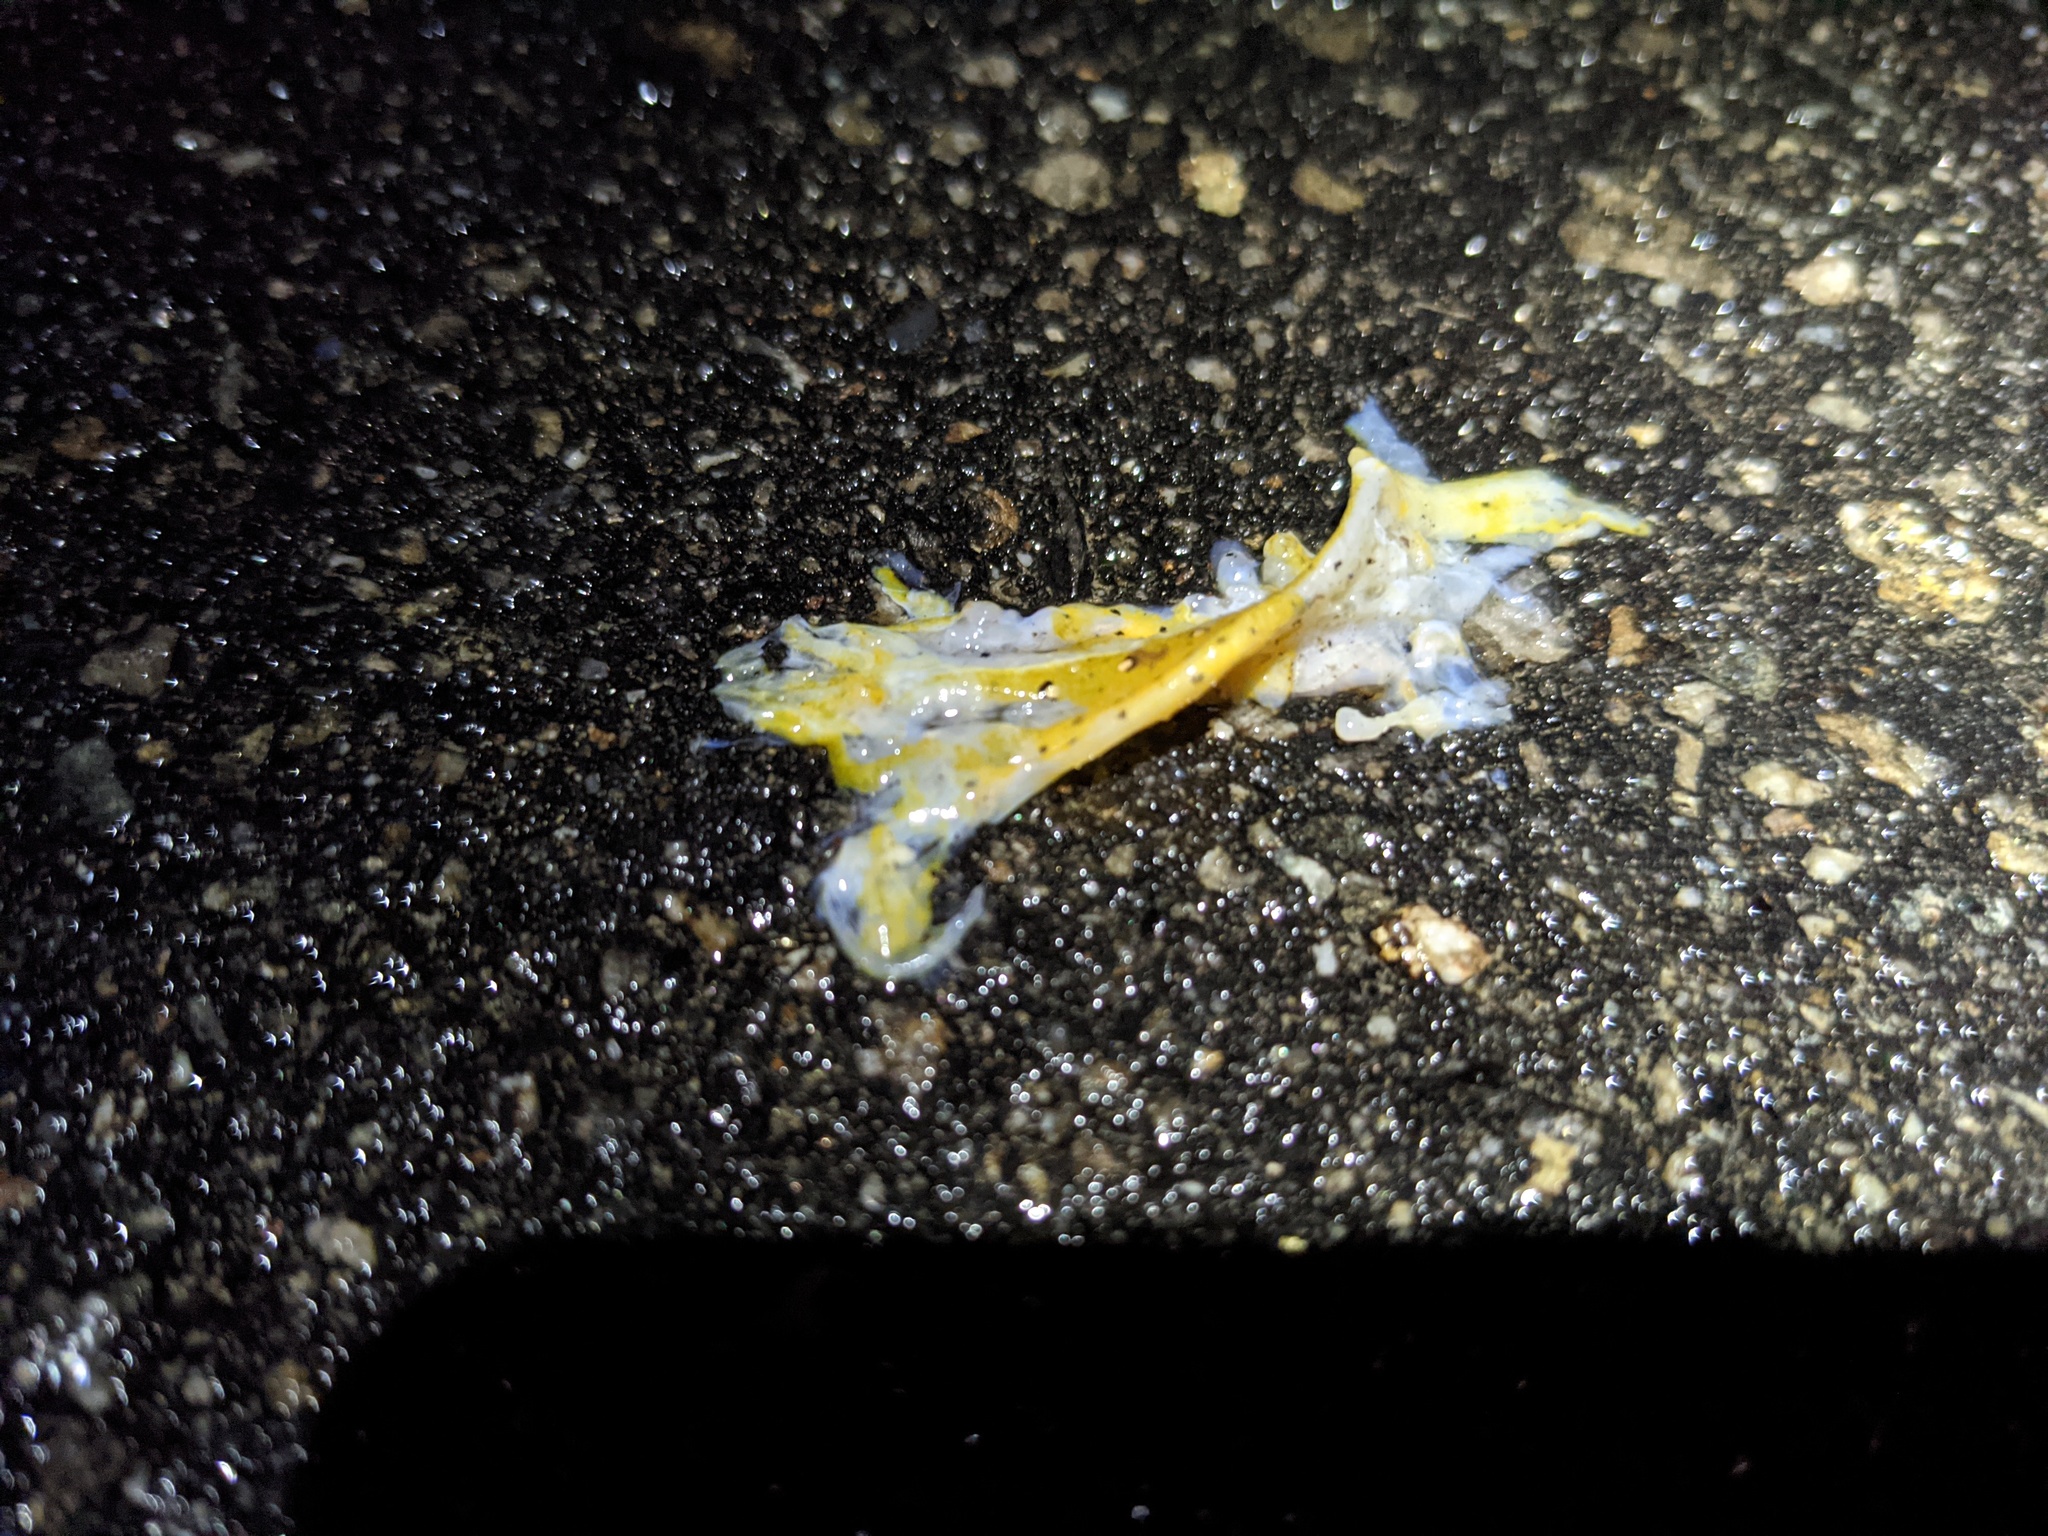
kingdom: Animalia
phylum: Chordata
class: Amphibia
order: Caudata
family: Salamandridae
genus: Notophthalmus
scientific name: Notophthalmus viridescens
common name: Eastern newt
